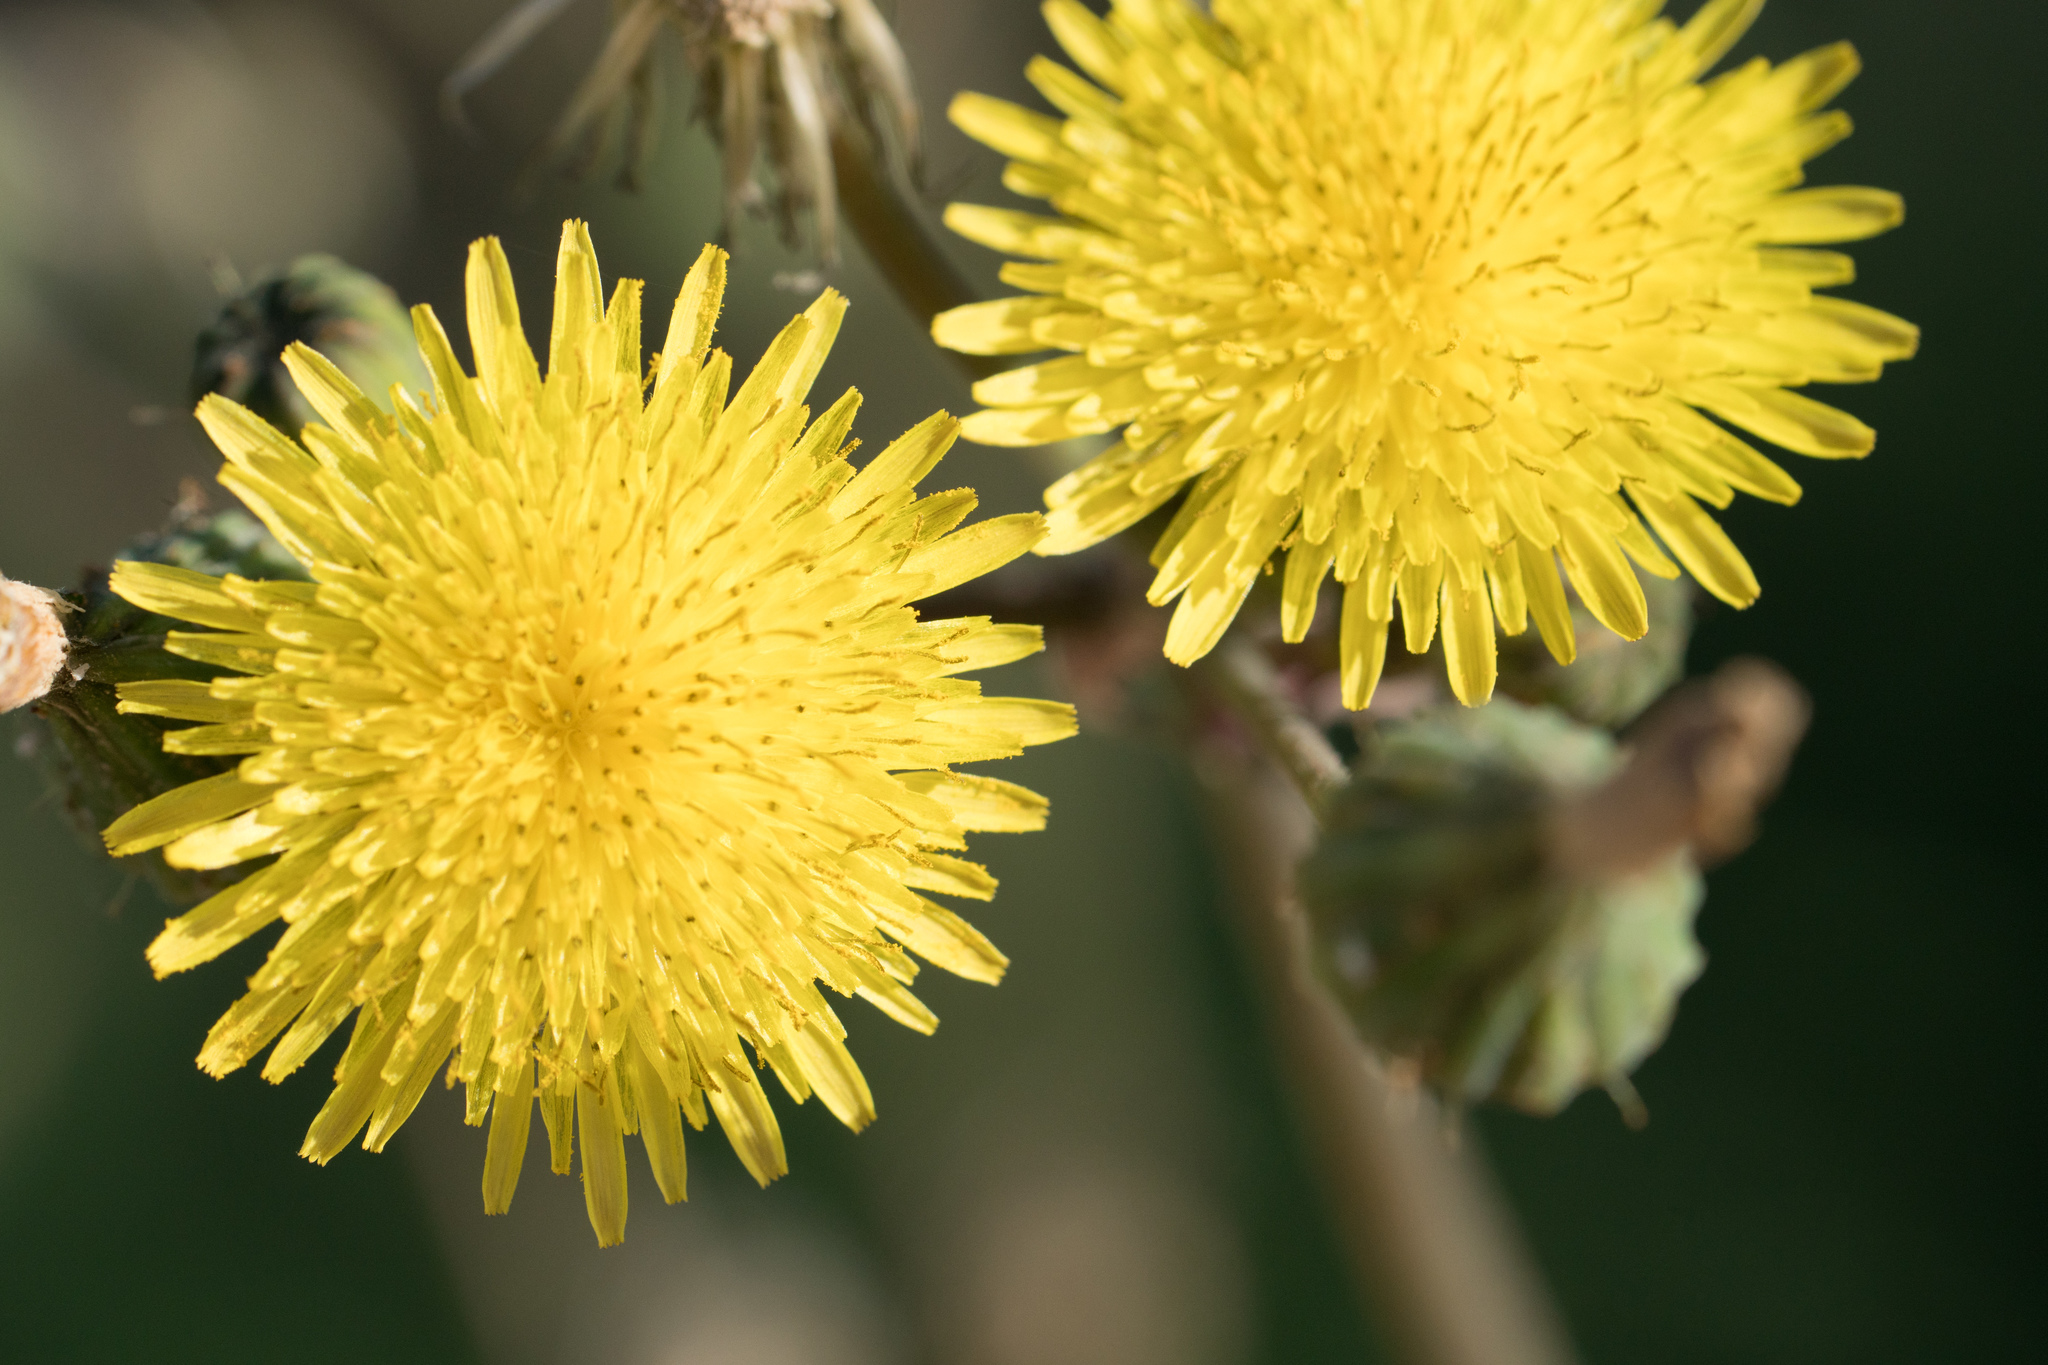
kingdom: Plantae
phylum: Tracheophyta
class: Magnoliopsida
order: Asterales
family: Asteraceae
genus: Sonchus
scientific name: Sonchus oleraceus
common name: Common sowthistle
